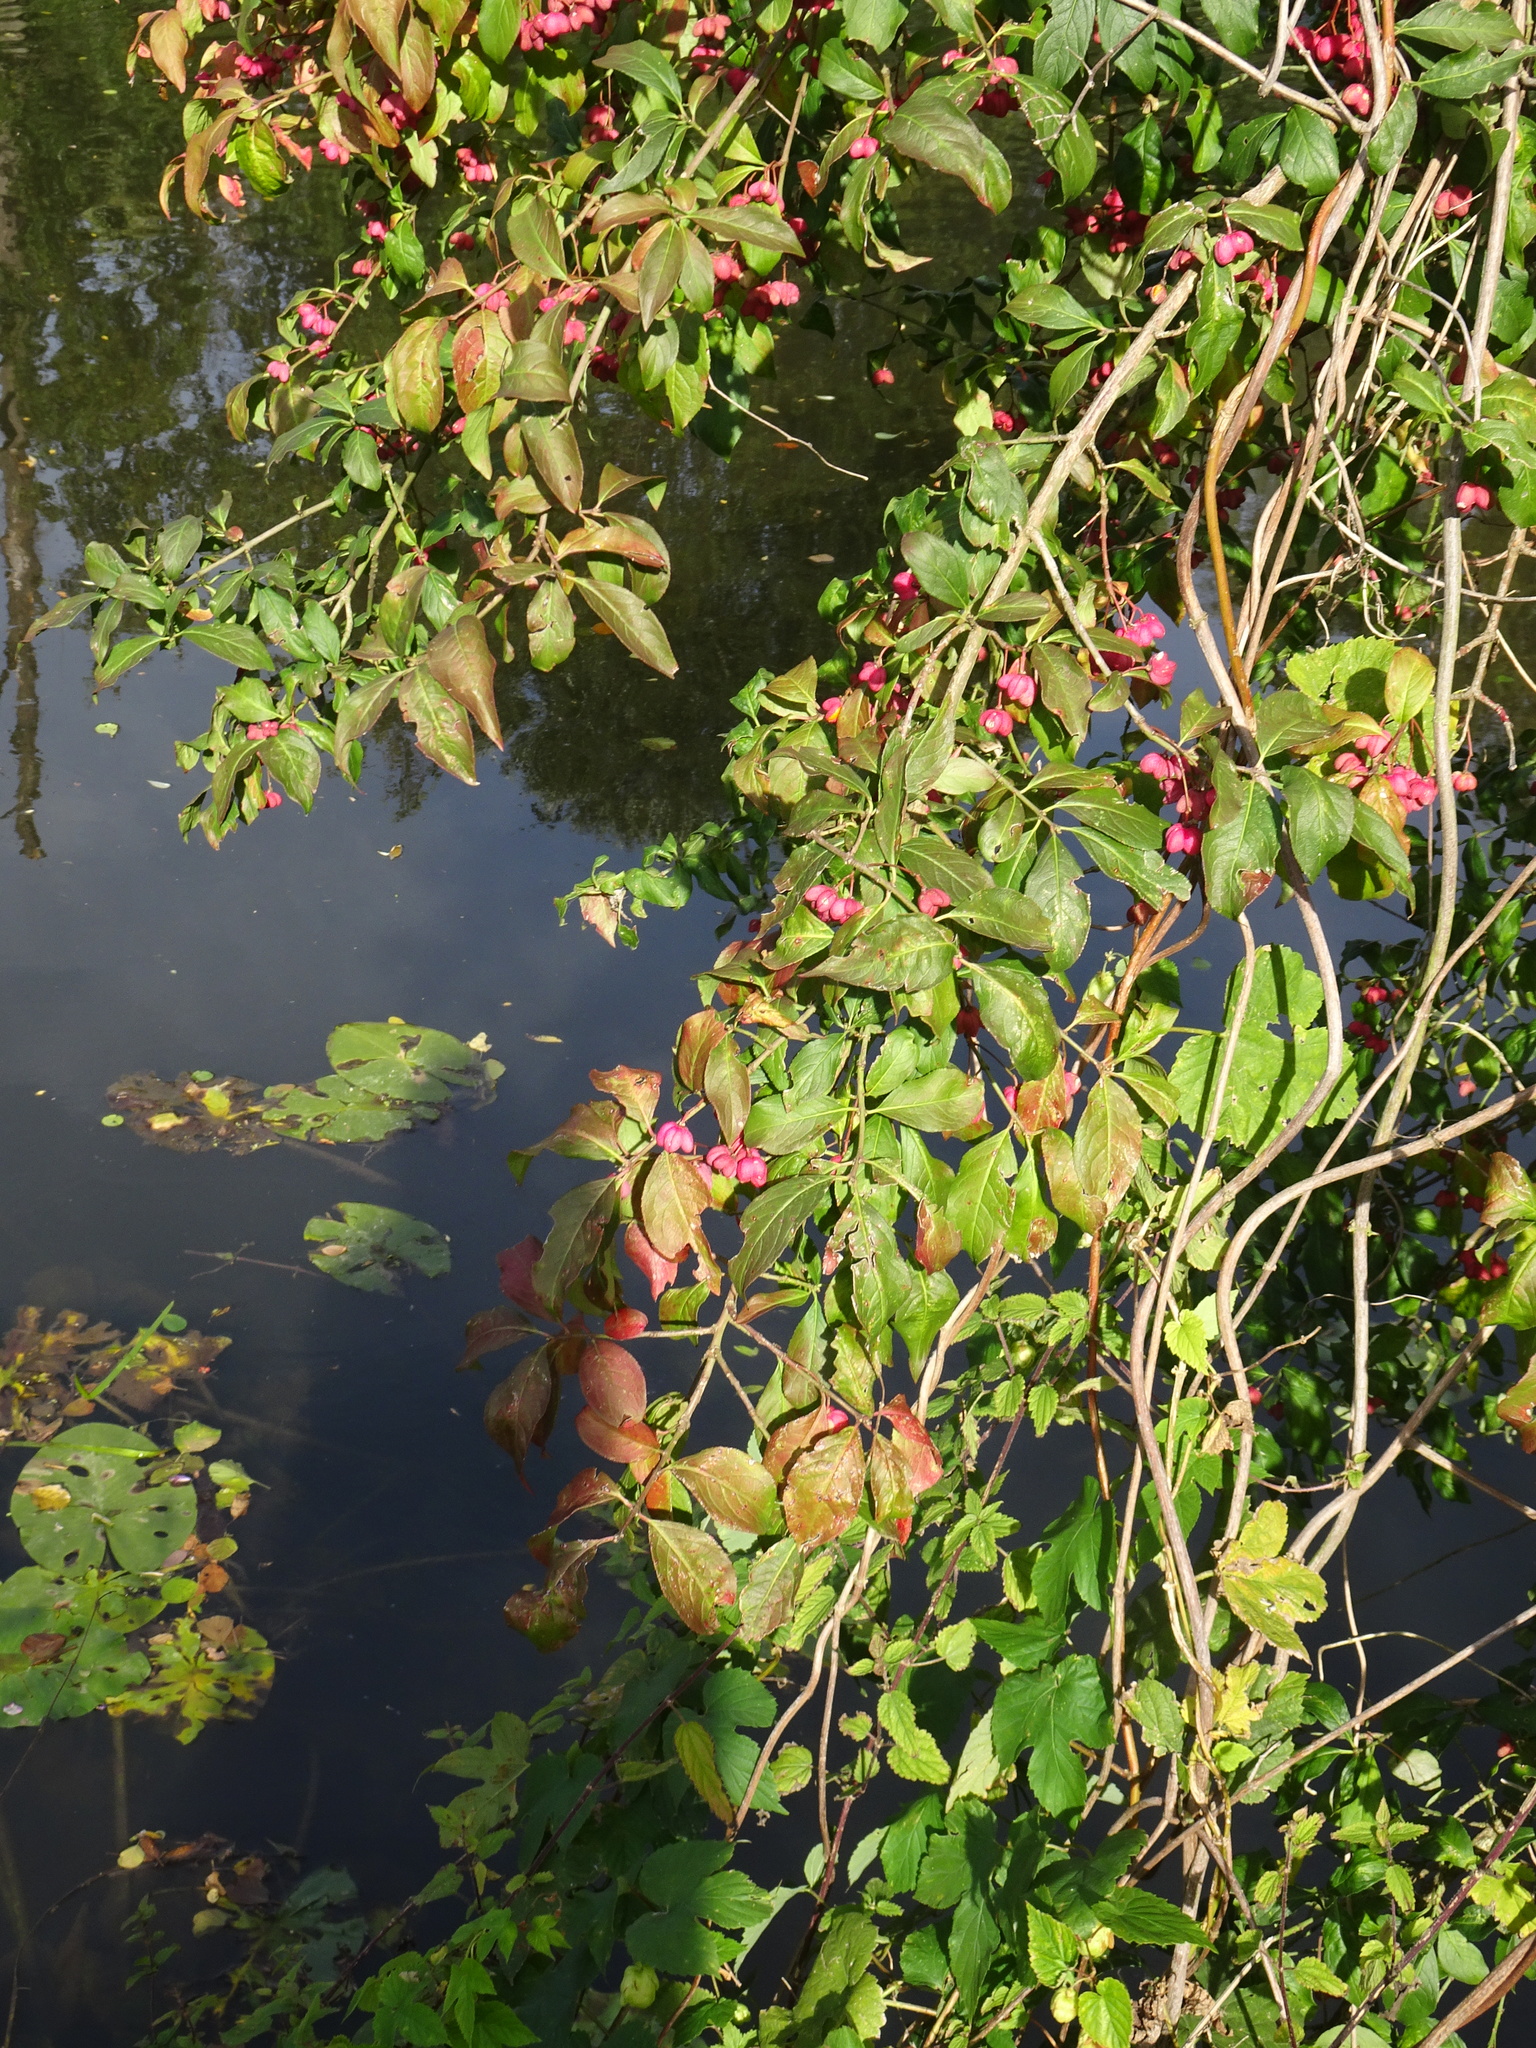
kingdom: Plantae
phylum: Tracheophyta
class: Magnoliopsida
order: Celastrales
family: Celastraceae
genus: Euonymus
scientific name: Euonymus europaeus
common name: Spindle
